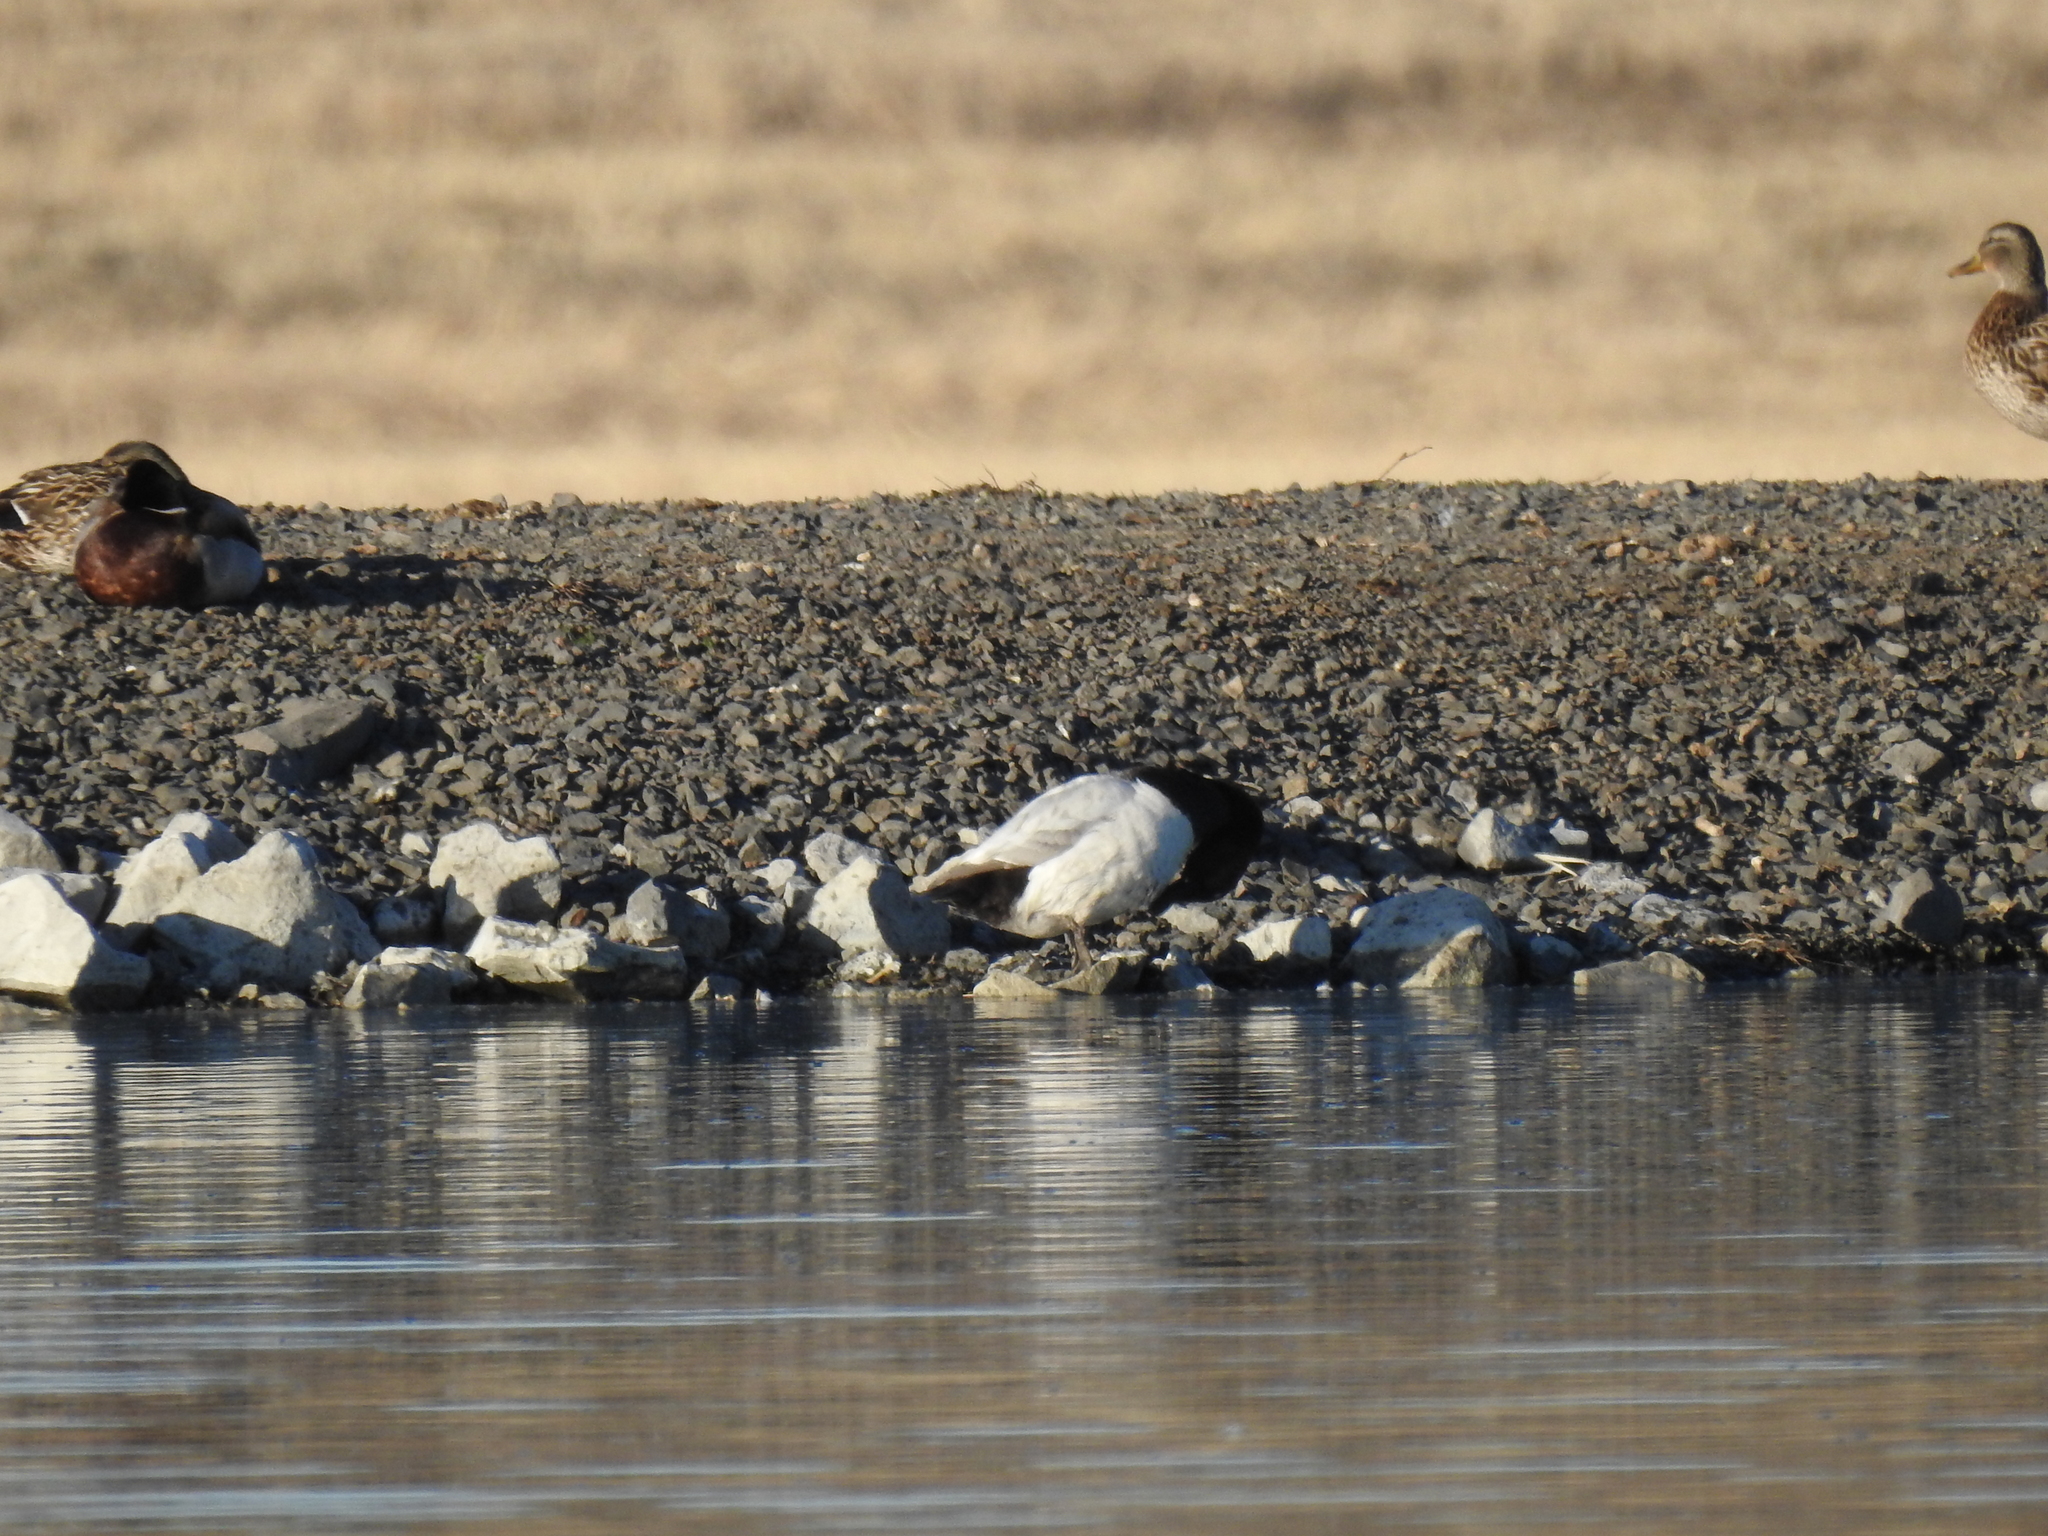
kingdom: Animalia
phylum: Chordata
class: Aves
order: Anseriformes
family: Anatidae
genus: Aythya
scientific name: Aythya valisineria
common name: Canvasback
